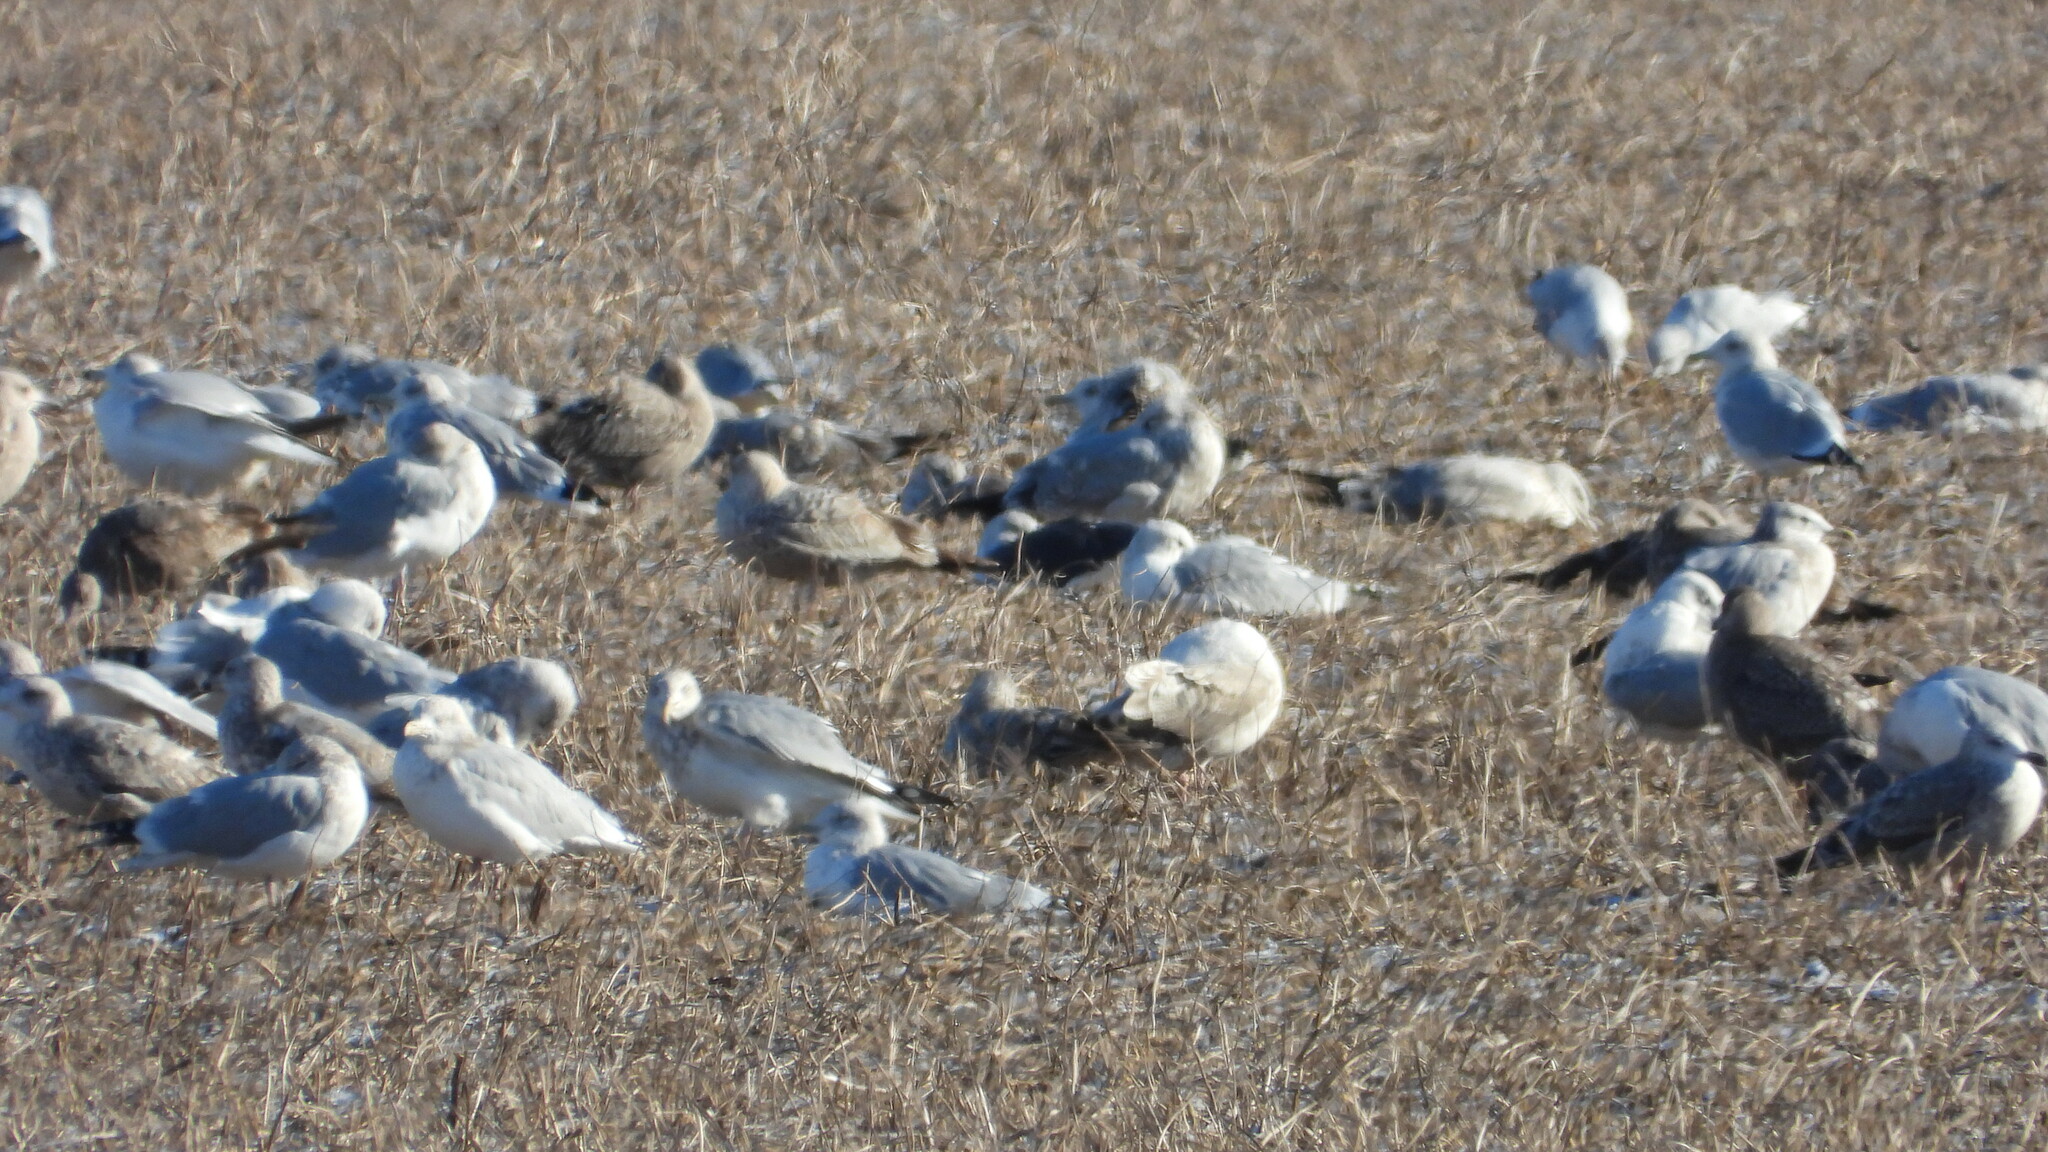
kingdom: Animalia
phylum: Chordata
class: Aves
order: Charadriiformes
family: Laridae
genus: Larus
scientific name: Larus fuscus
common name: Lesser black-backed gull
